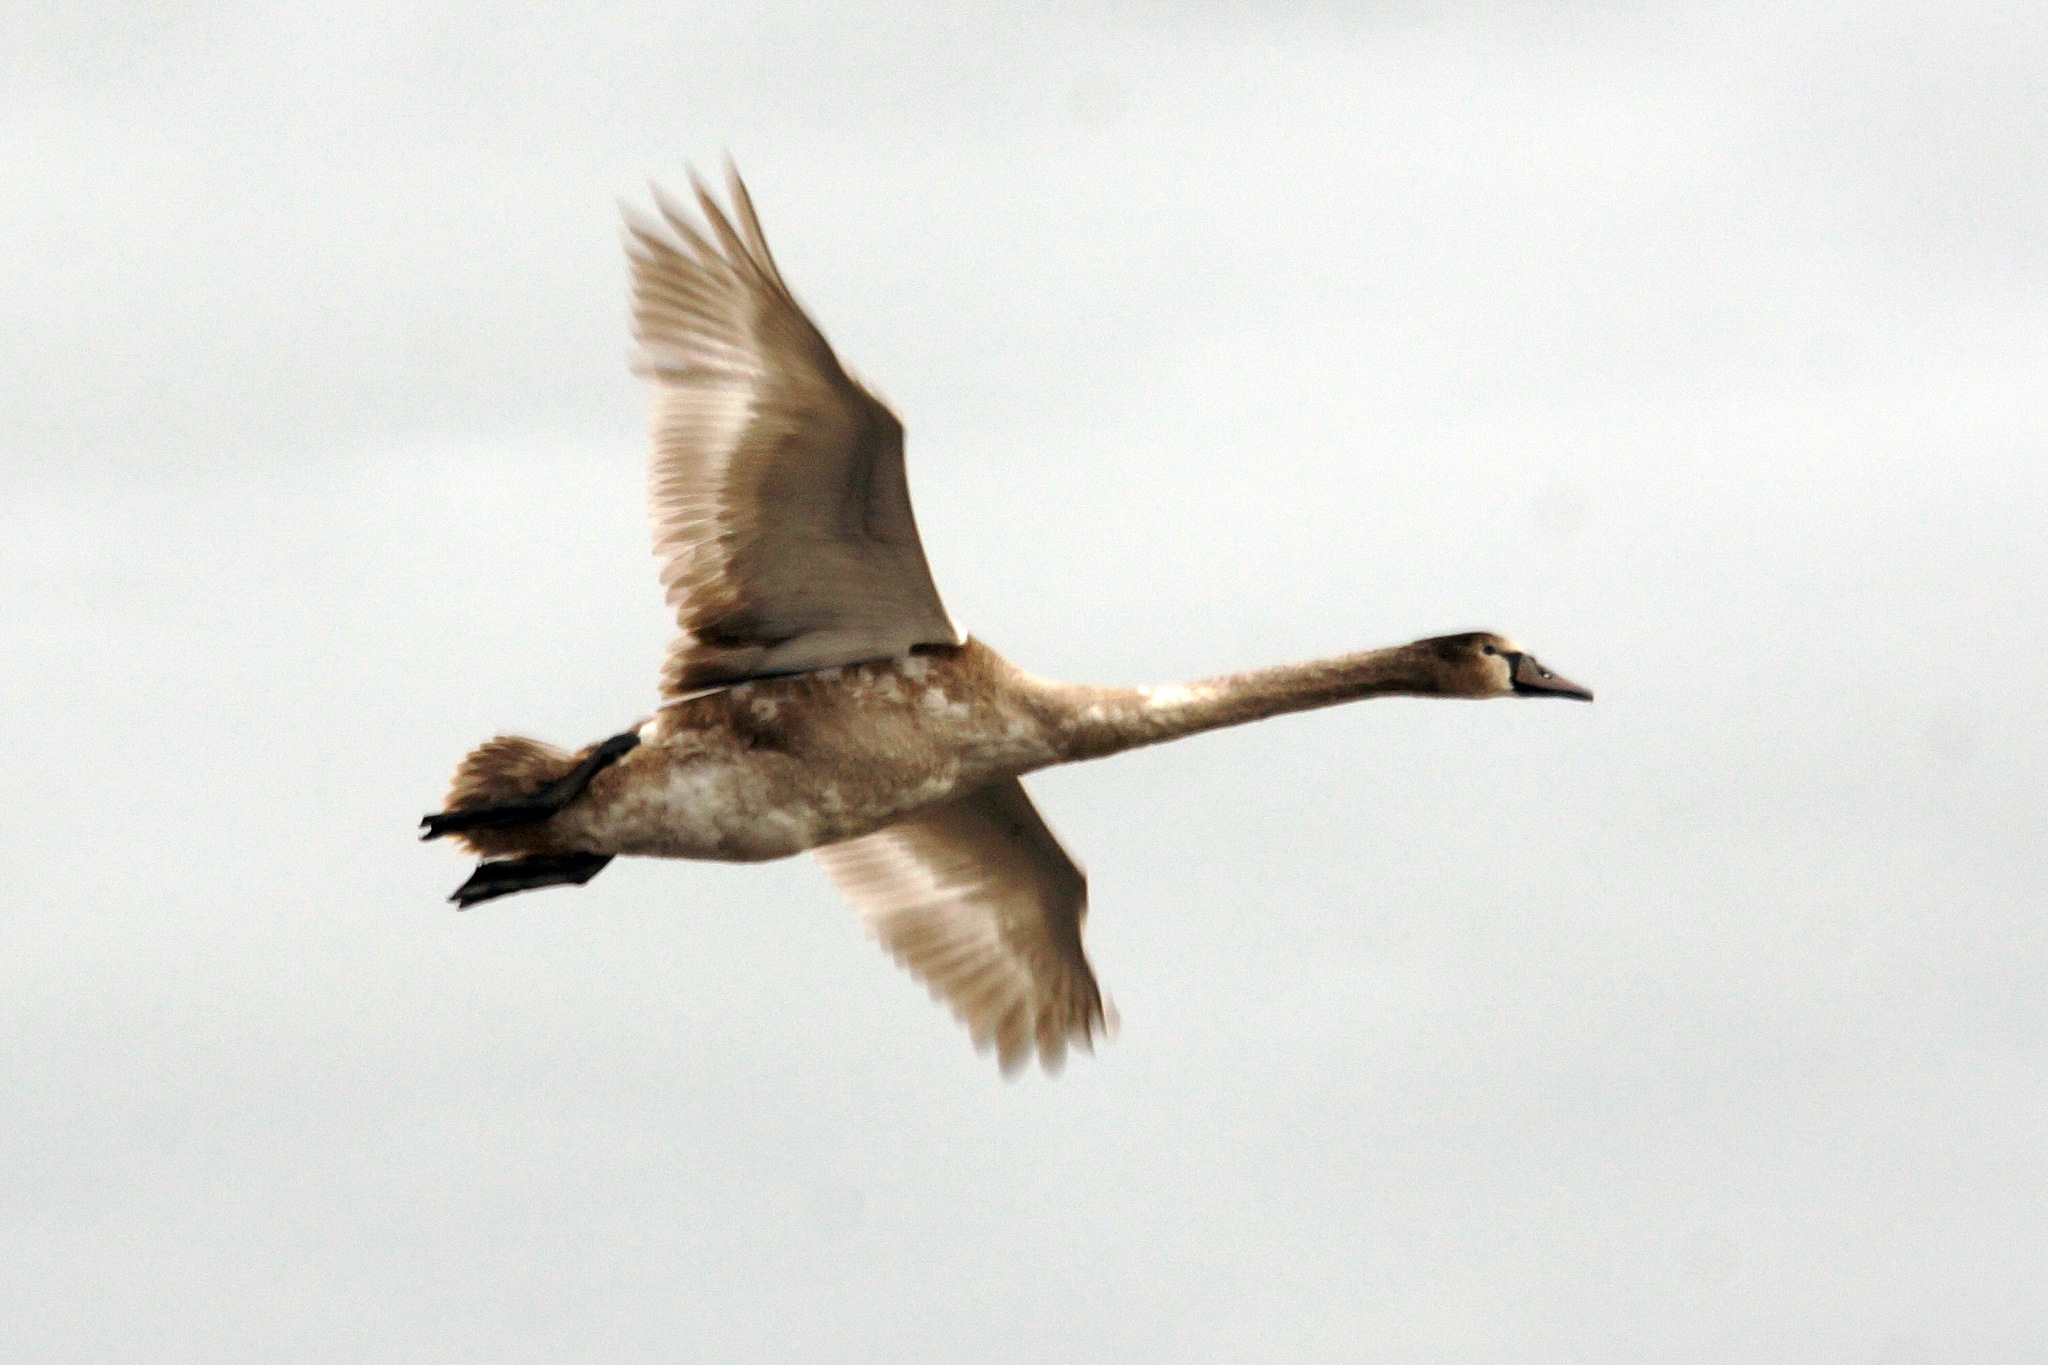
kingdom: Animalia
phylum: Chordata
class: Aves
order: Anseriformes
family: Anatidae
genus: Cygnus
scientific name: Cygnus olor
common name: Mute swan
